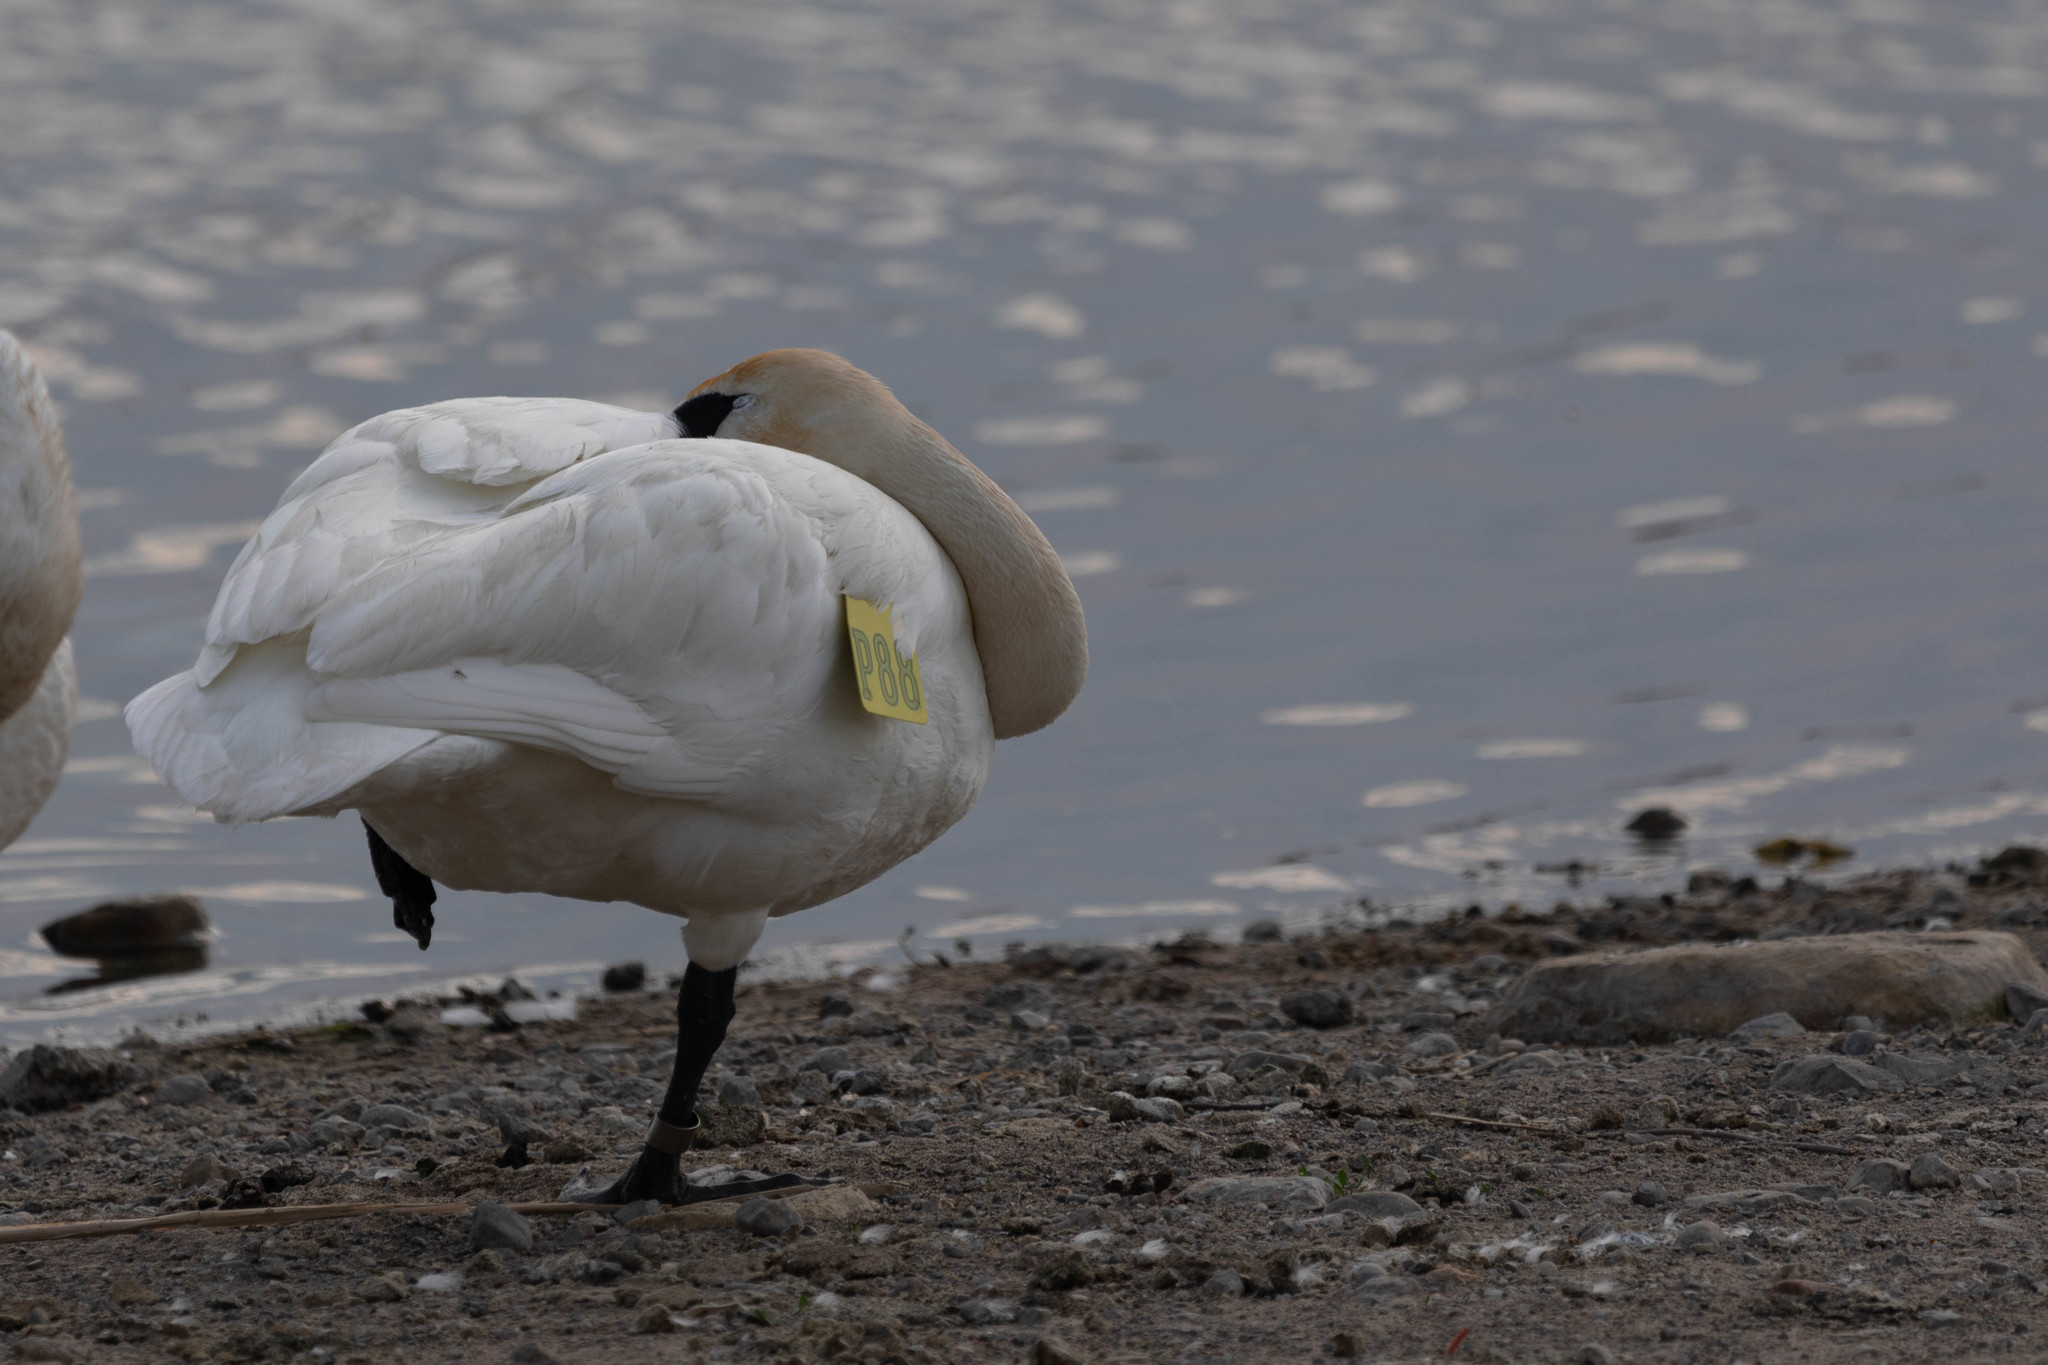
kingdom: Animalia
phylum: Chordata
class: Aves
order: Anseriformes
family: Anatidae
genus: Cygnus
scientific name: Cygnus buccinator
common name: Trumpeter swan
